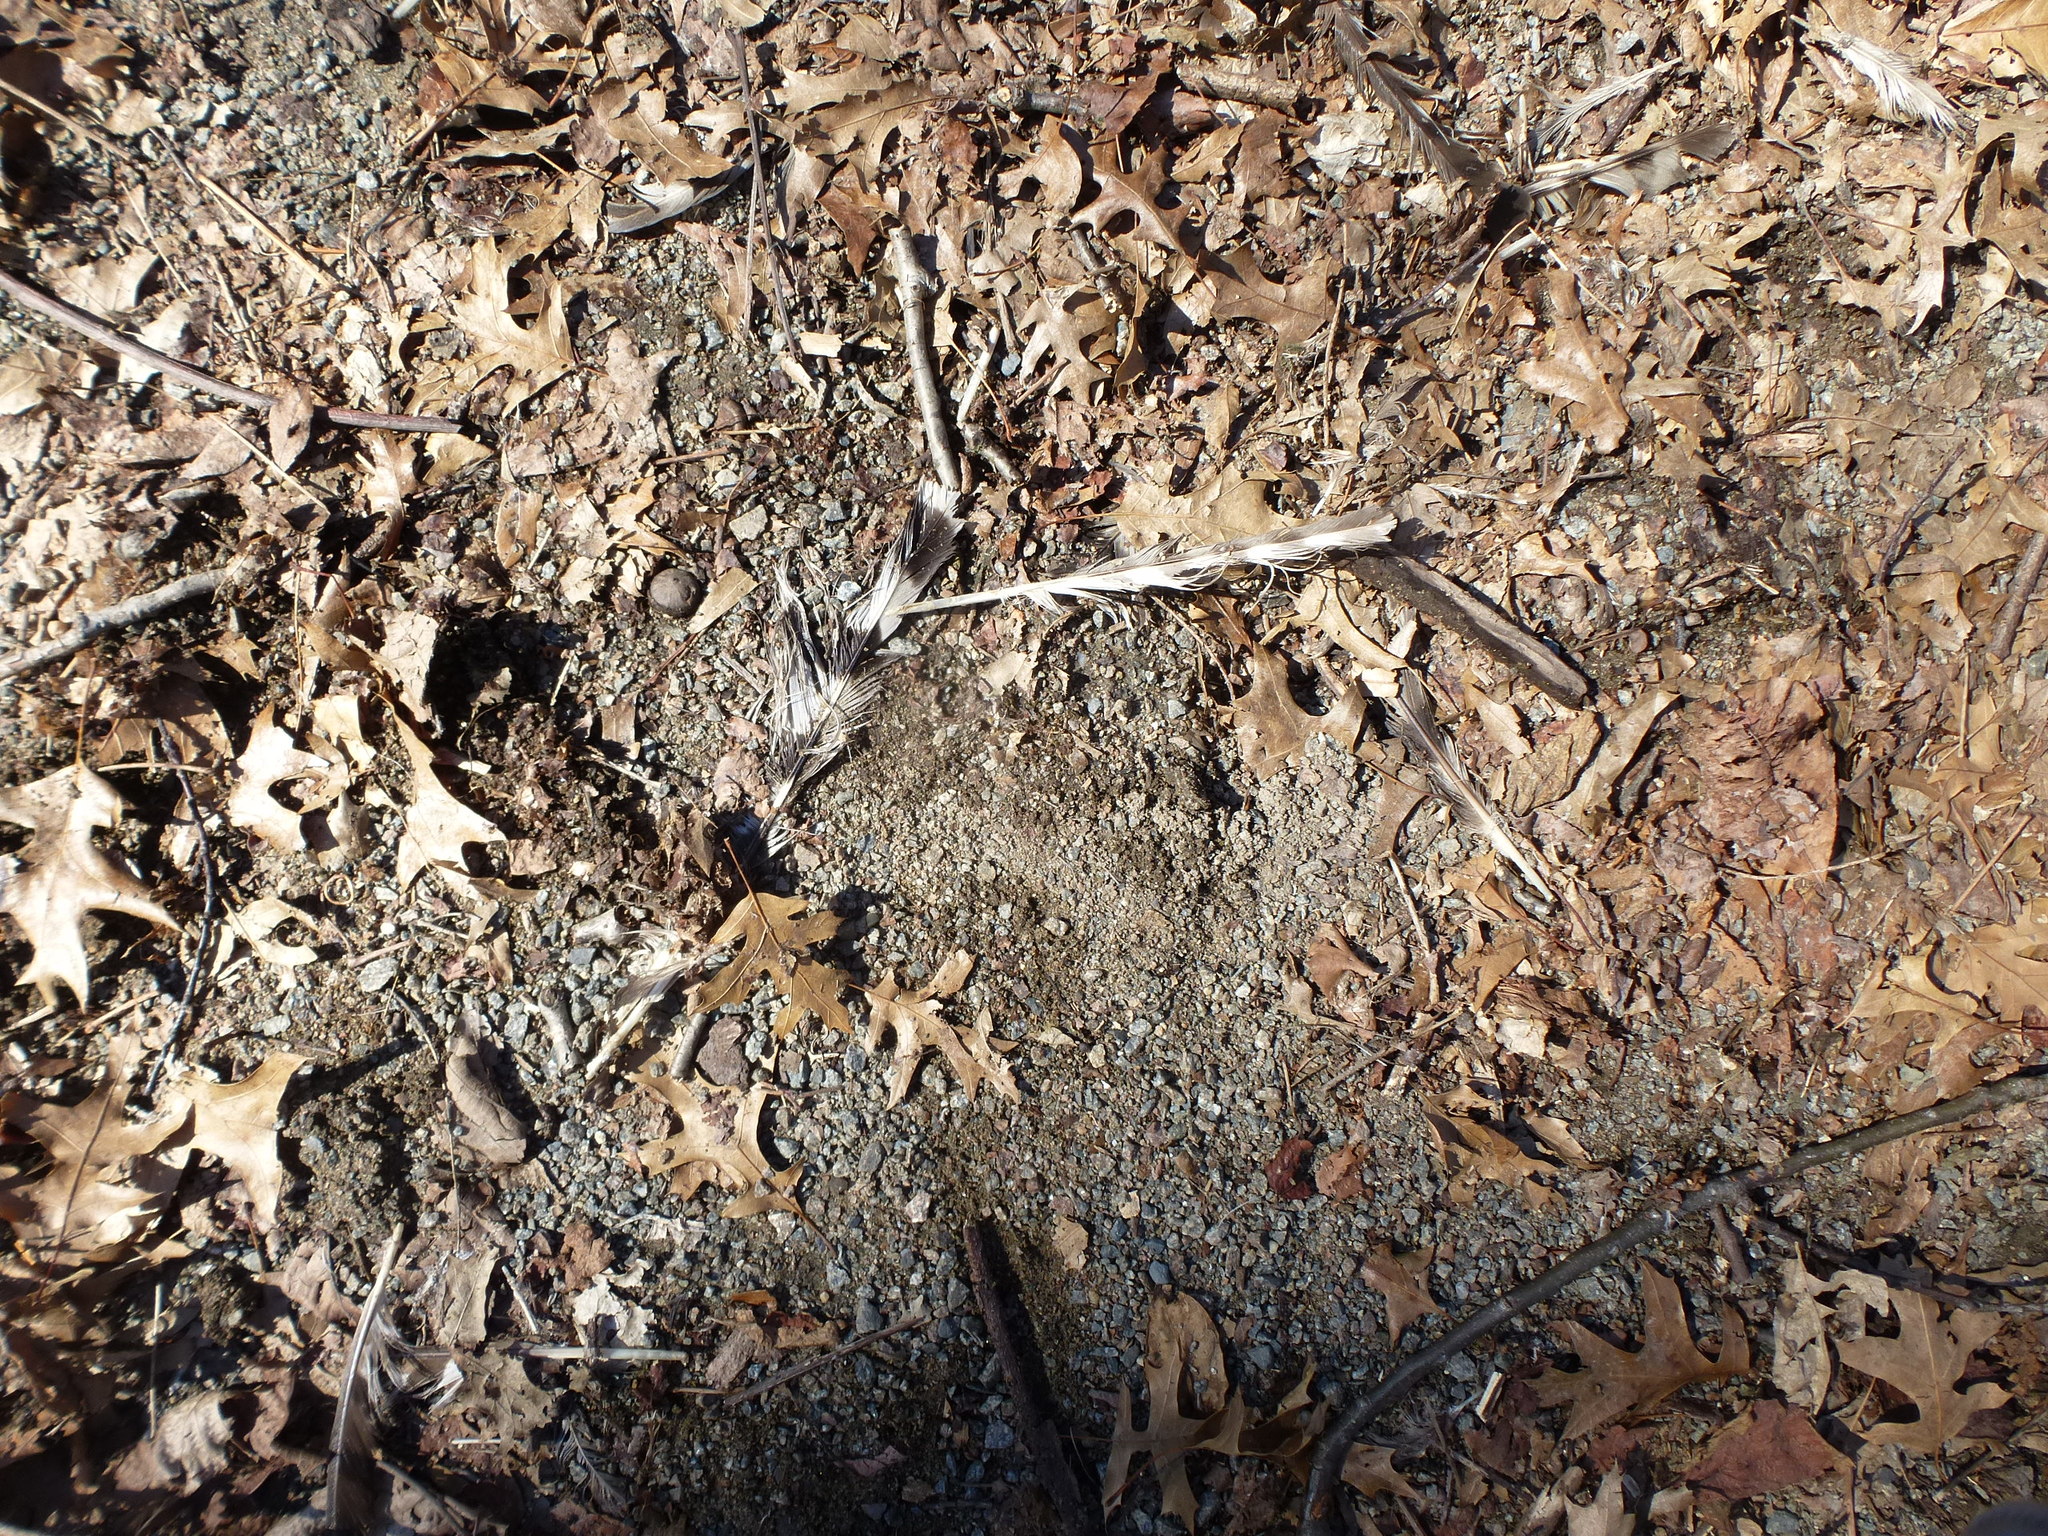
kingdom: Animalia
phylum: Chordata
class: Aves
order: Accipitriformes
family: Accipitridae
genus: Accipiter
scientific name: Accipiter cooperii
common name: Cooper's hawk
